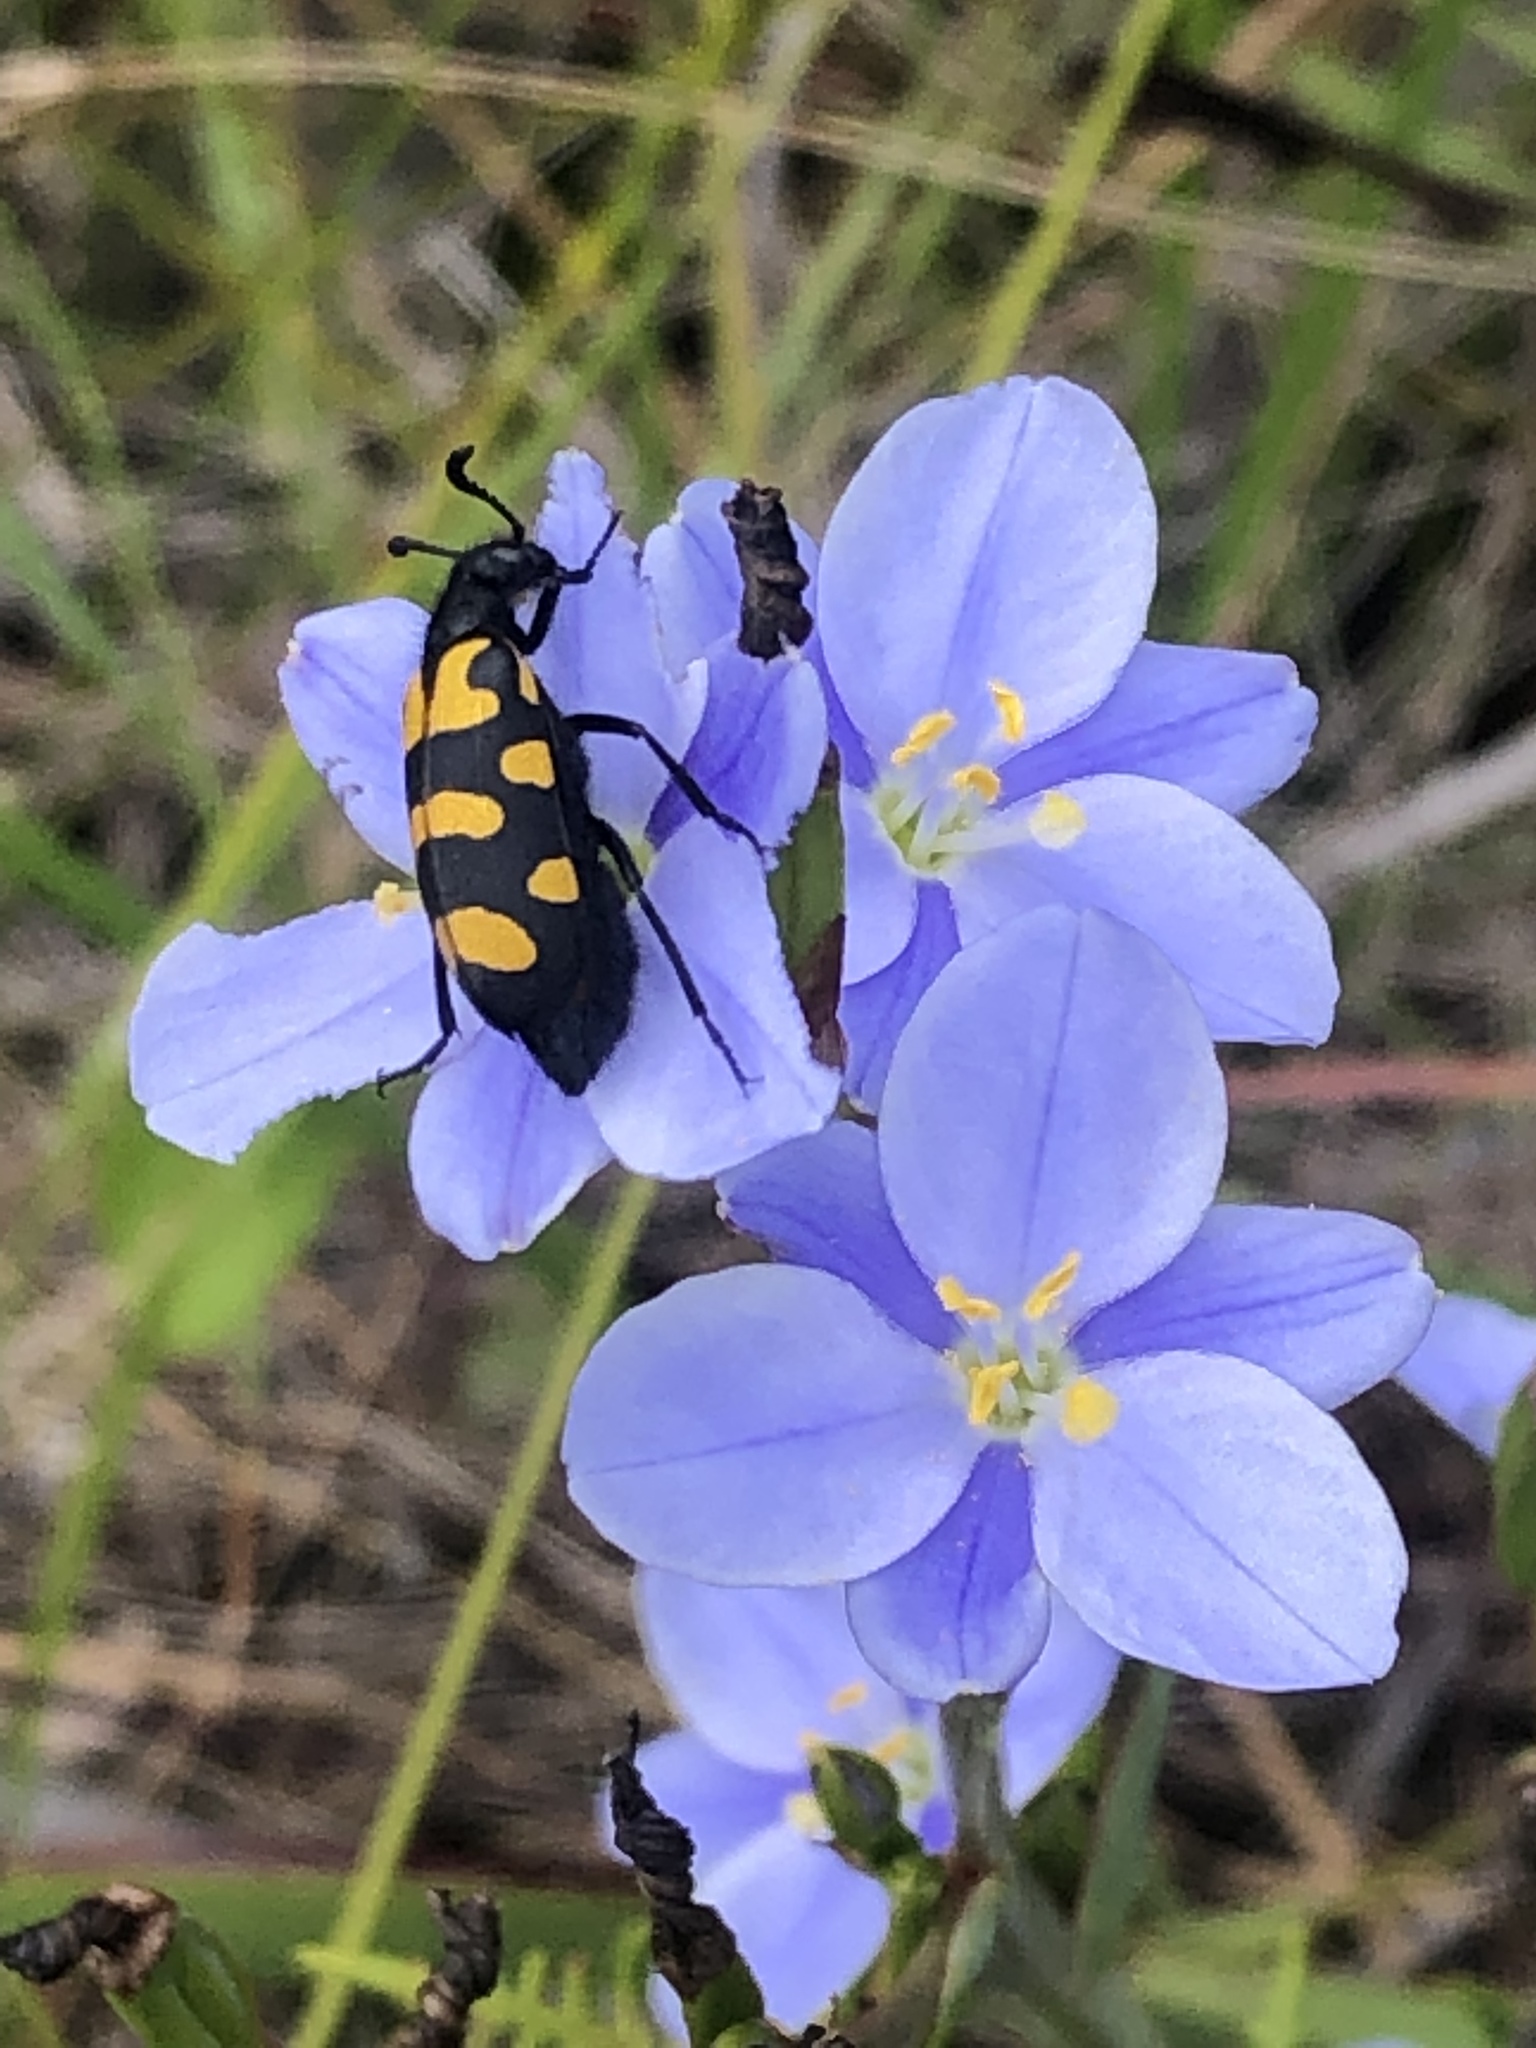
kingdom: Animalia
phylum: Arthropoda
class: Insecta
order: Coleoptera
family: Meloidae
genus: Ceroctis
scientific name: Ceroctis capensis
